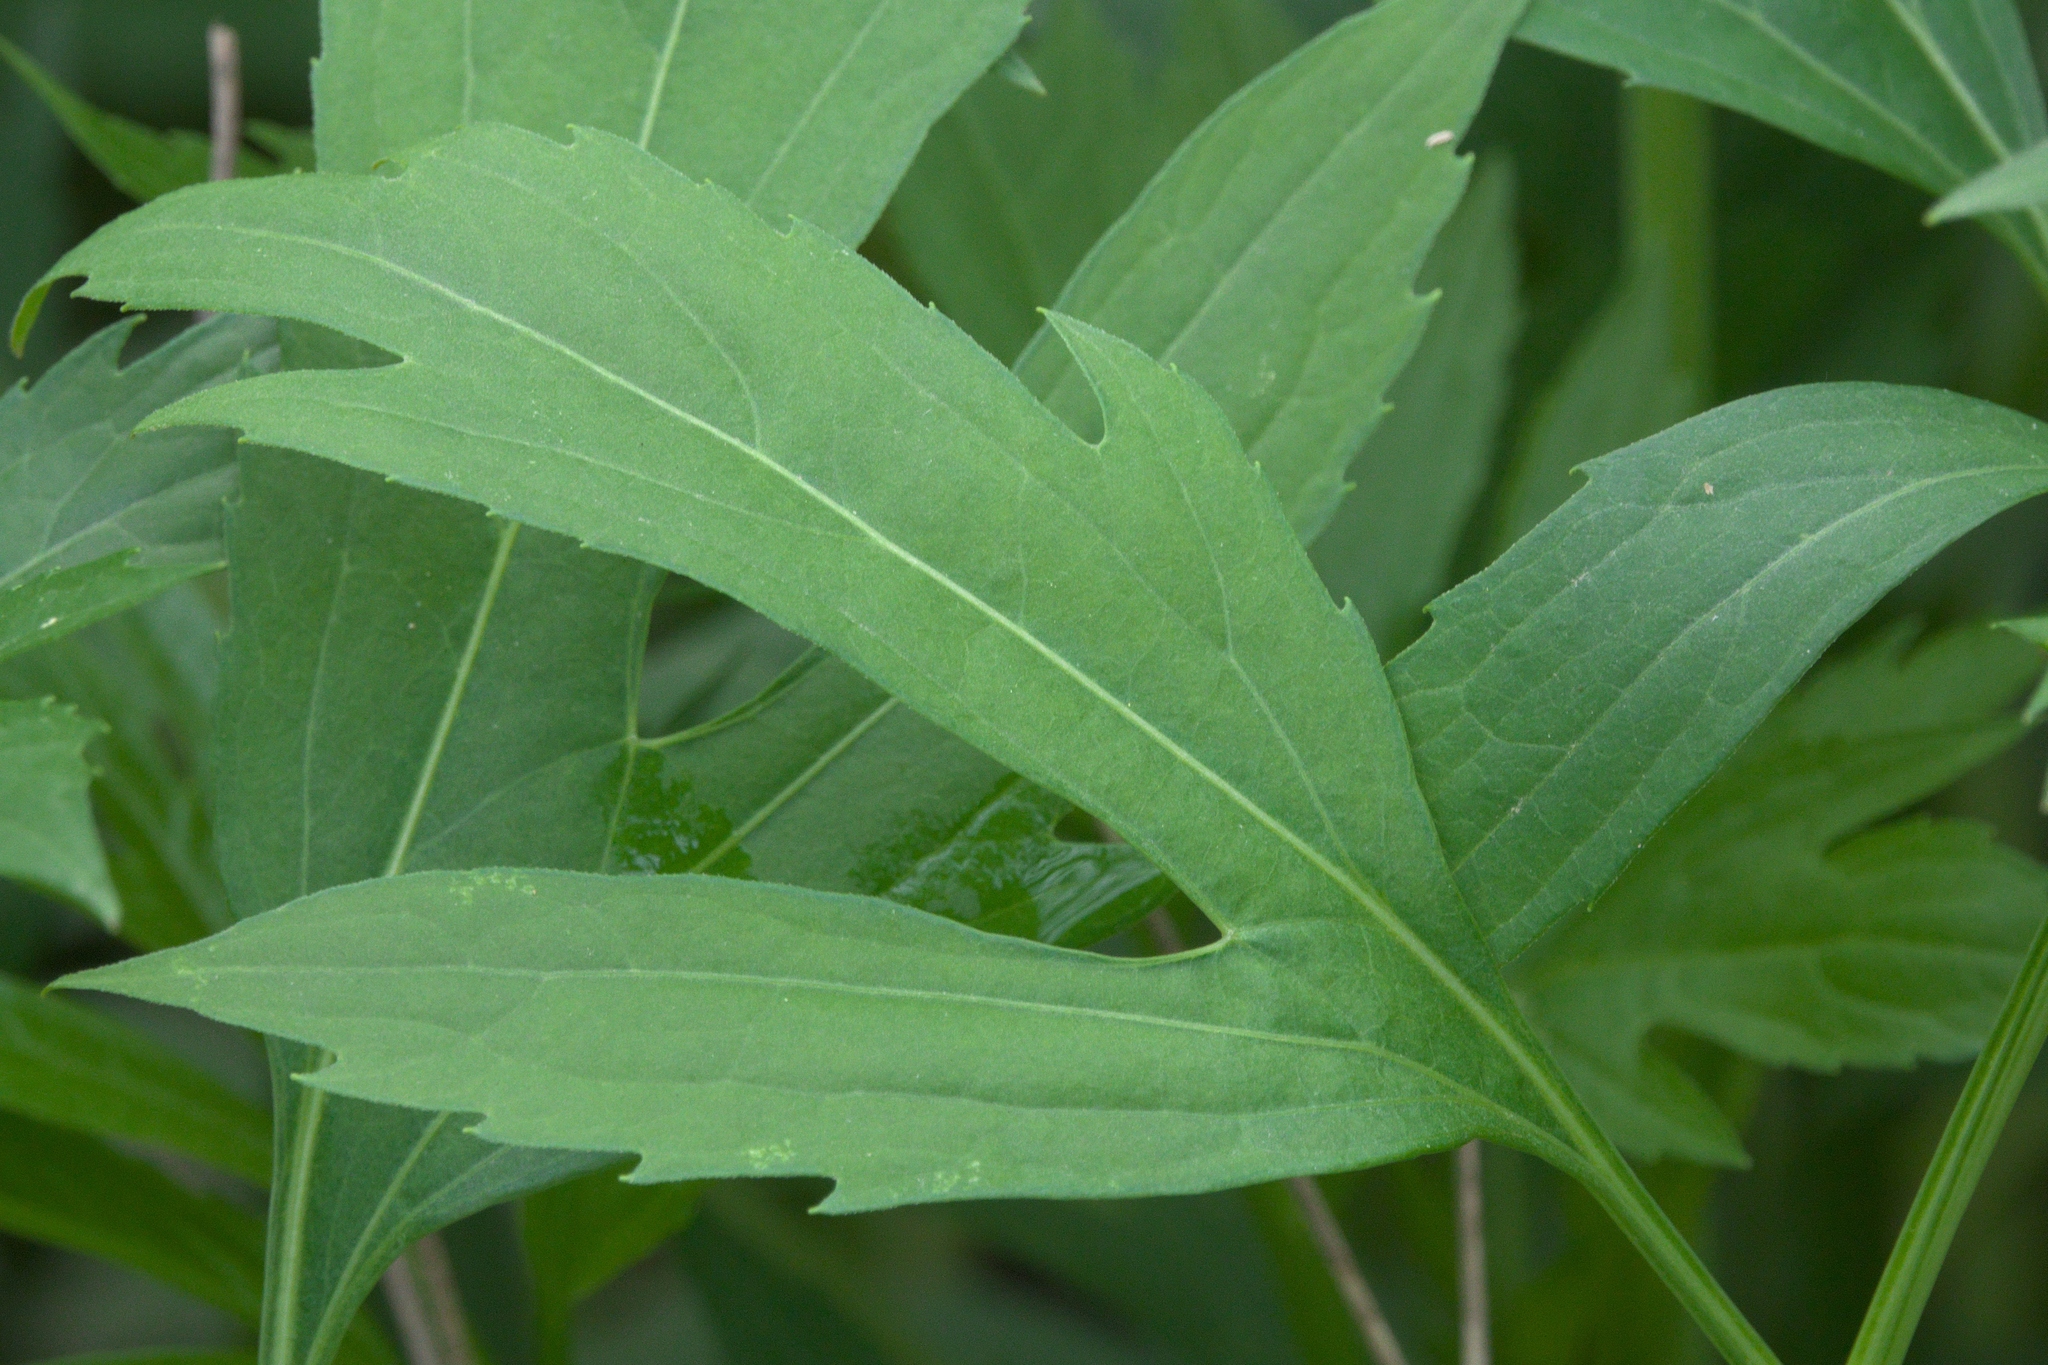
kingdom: Plantae
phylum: Tracheophyta
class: Magnoliopsida
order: Asterales
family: Asteraceae
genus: Rudbeckia
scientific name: Rudbeckia laciniata
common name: Coneflower
